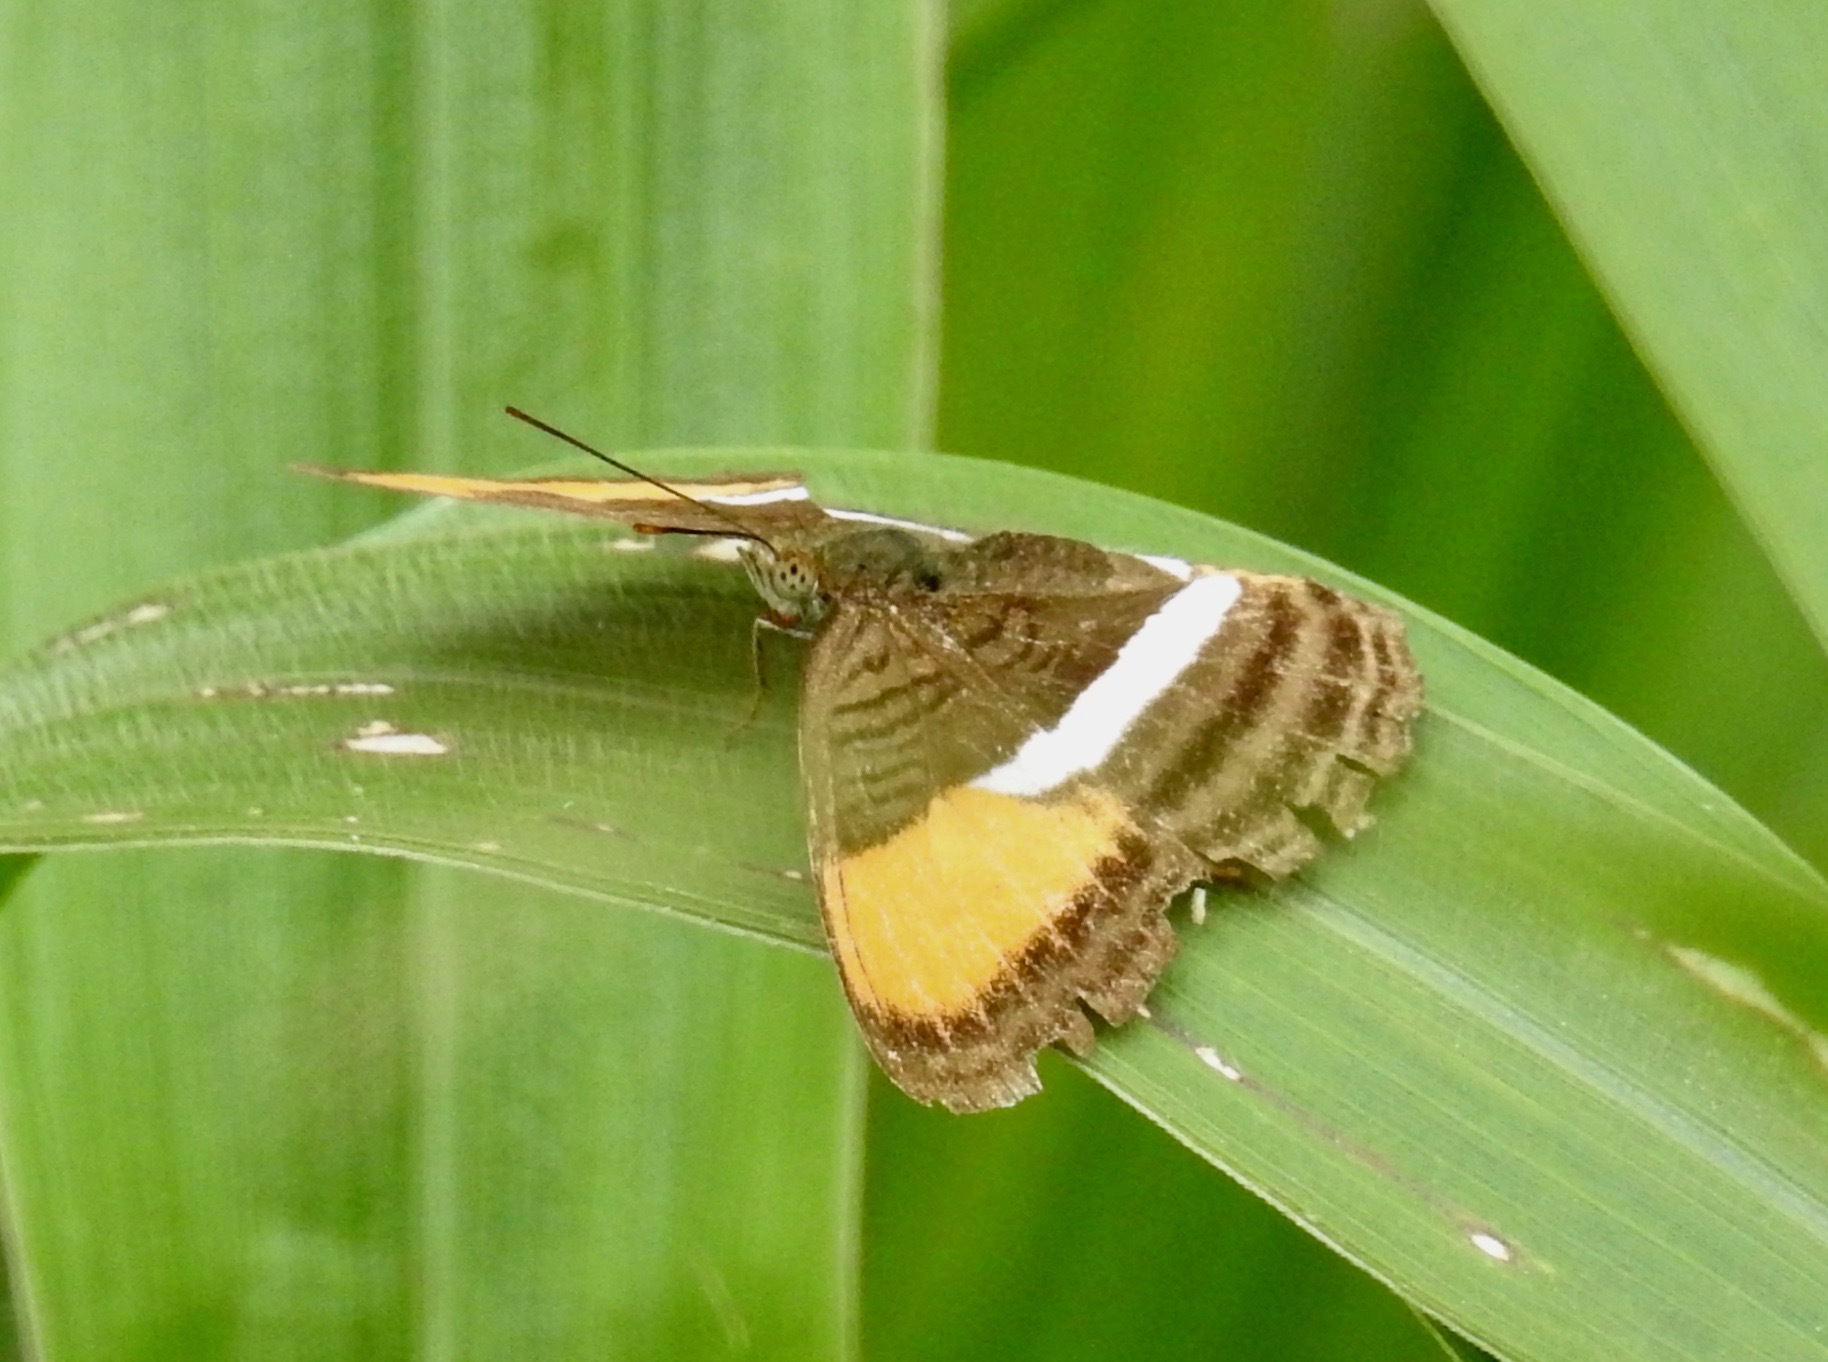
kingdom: Animalia
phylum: Arthropoda
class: Insecta
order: Lepidoptera
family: Nymphalidae
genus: Limenitis
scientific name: Limenitis cytherea
